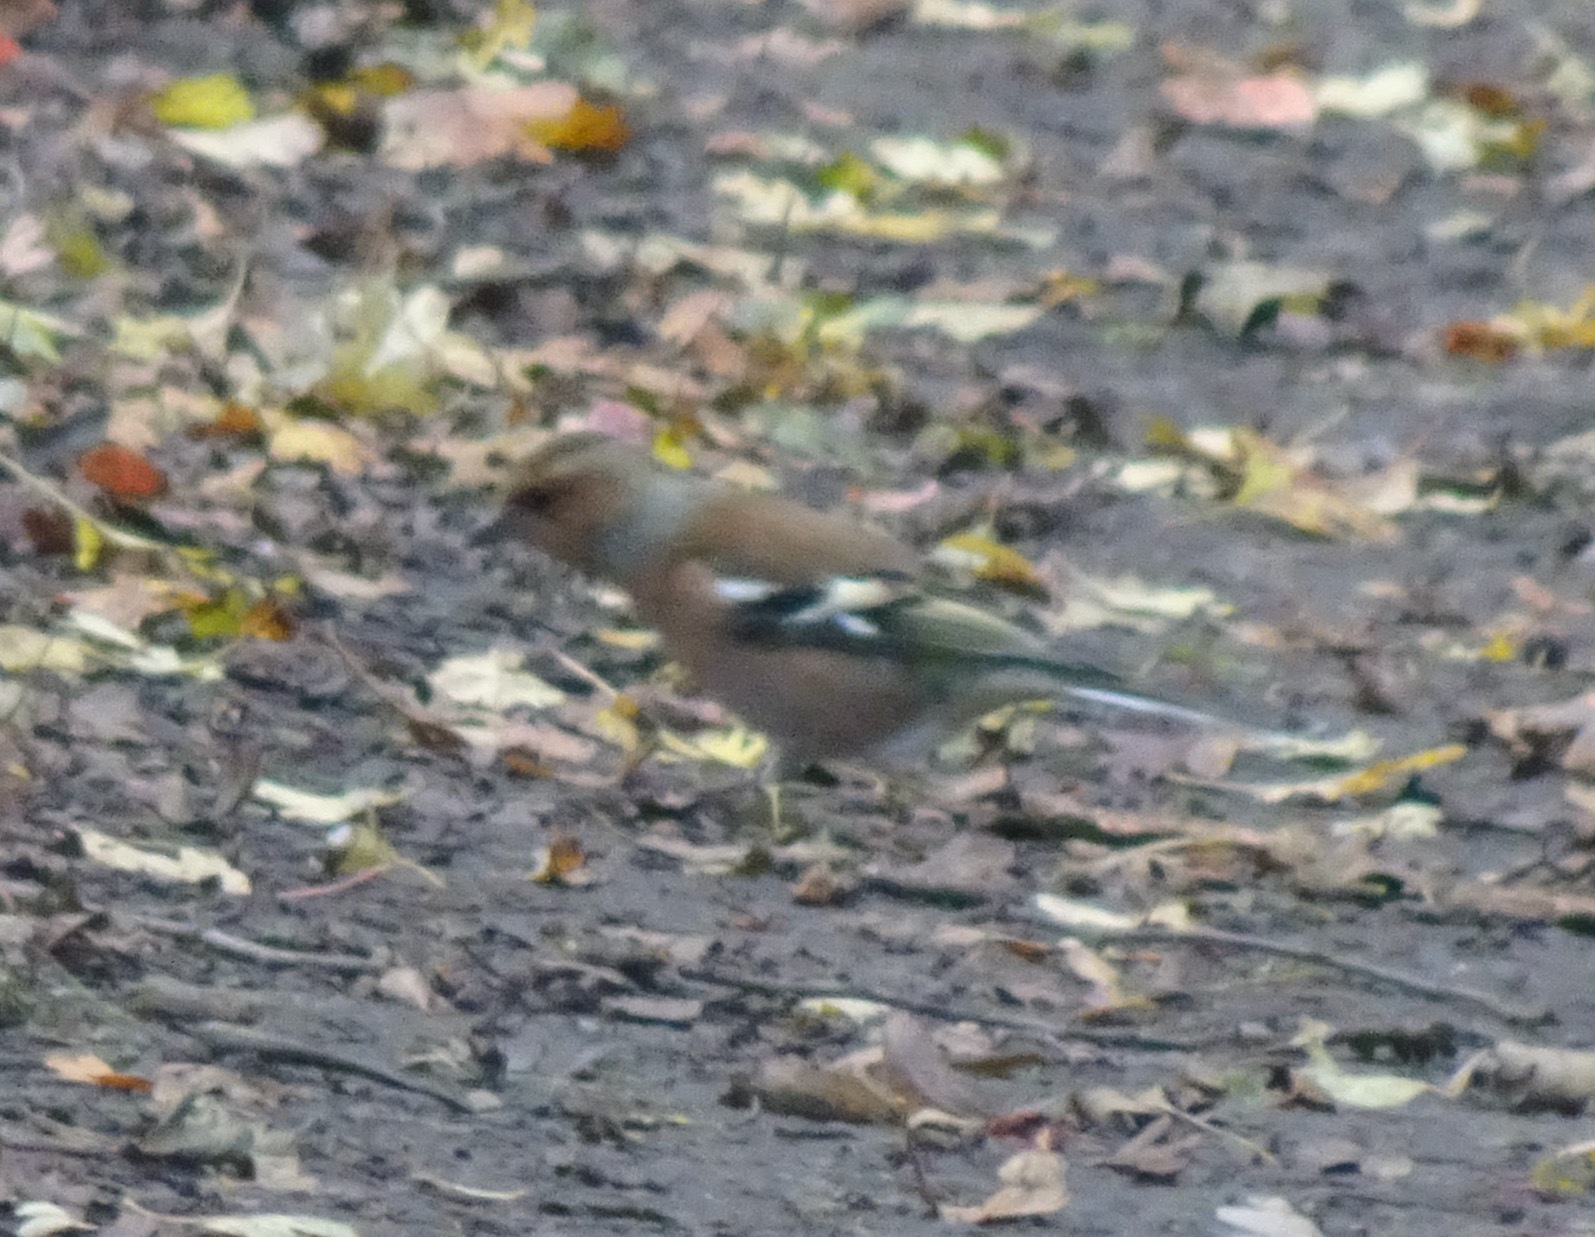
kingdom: Animalia
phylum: Chordata
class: Aves
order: Passeriformes
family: Fringillidae
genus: Fringilla
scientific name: Fringilla coelebs
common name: Common chaffinch
